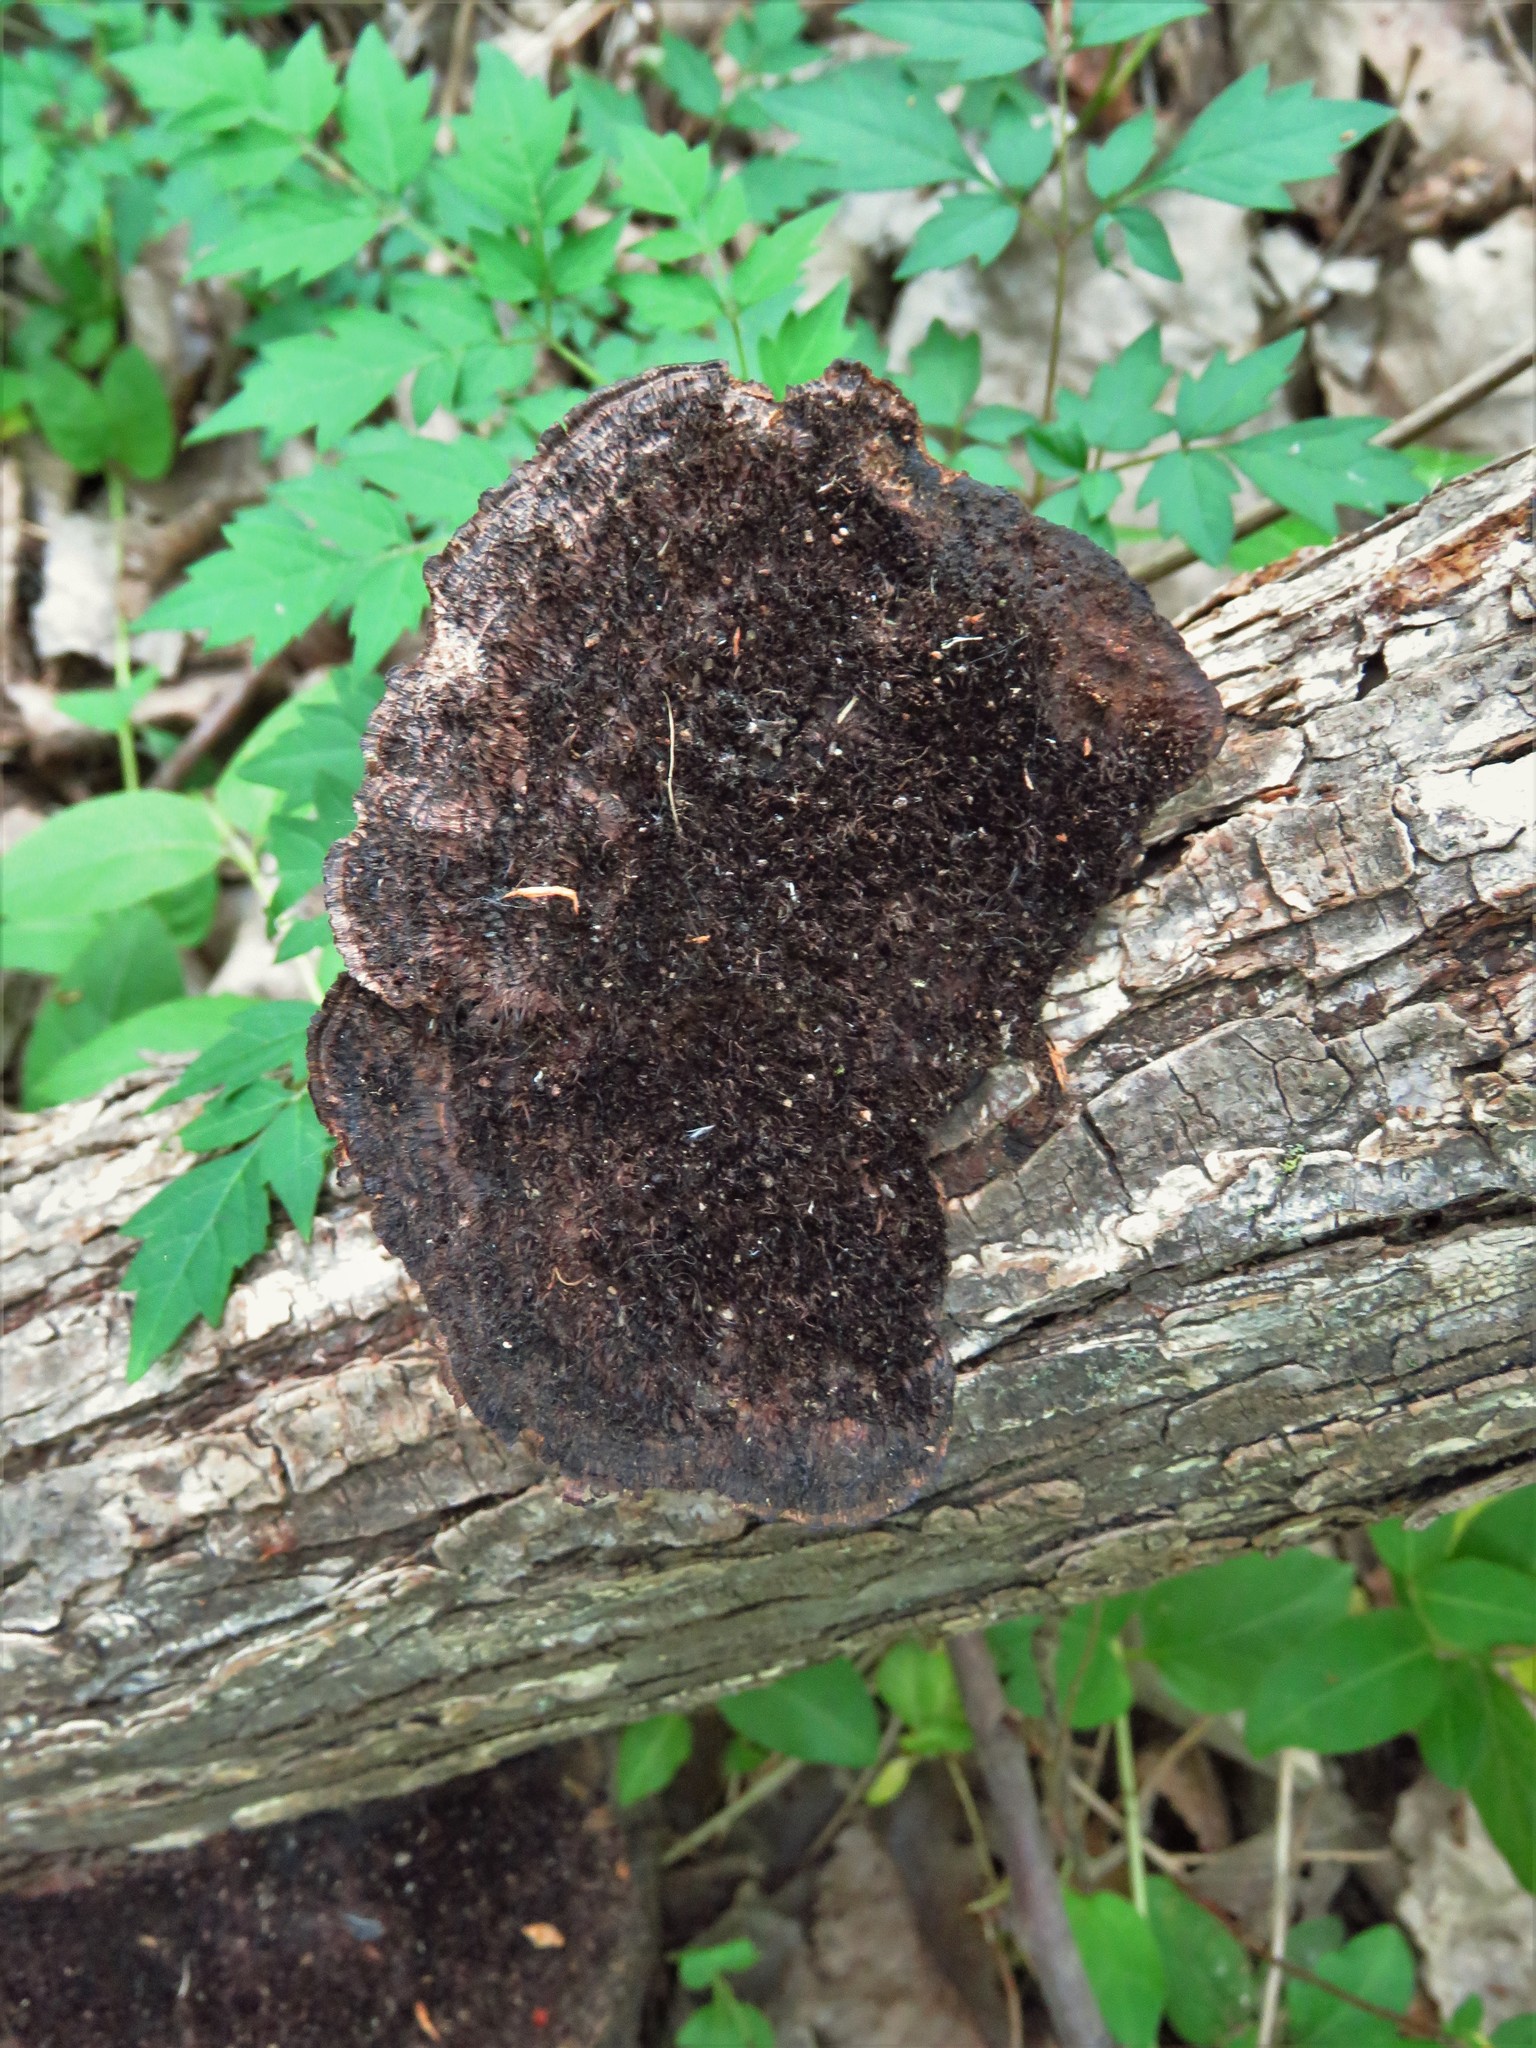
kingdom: Fungi
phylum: Basidiomycota
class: Agaricomycetes
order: Polyporales
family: Cerrenaceae
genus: Cerrena
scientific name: Cerrena hydnoides
